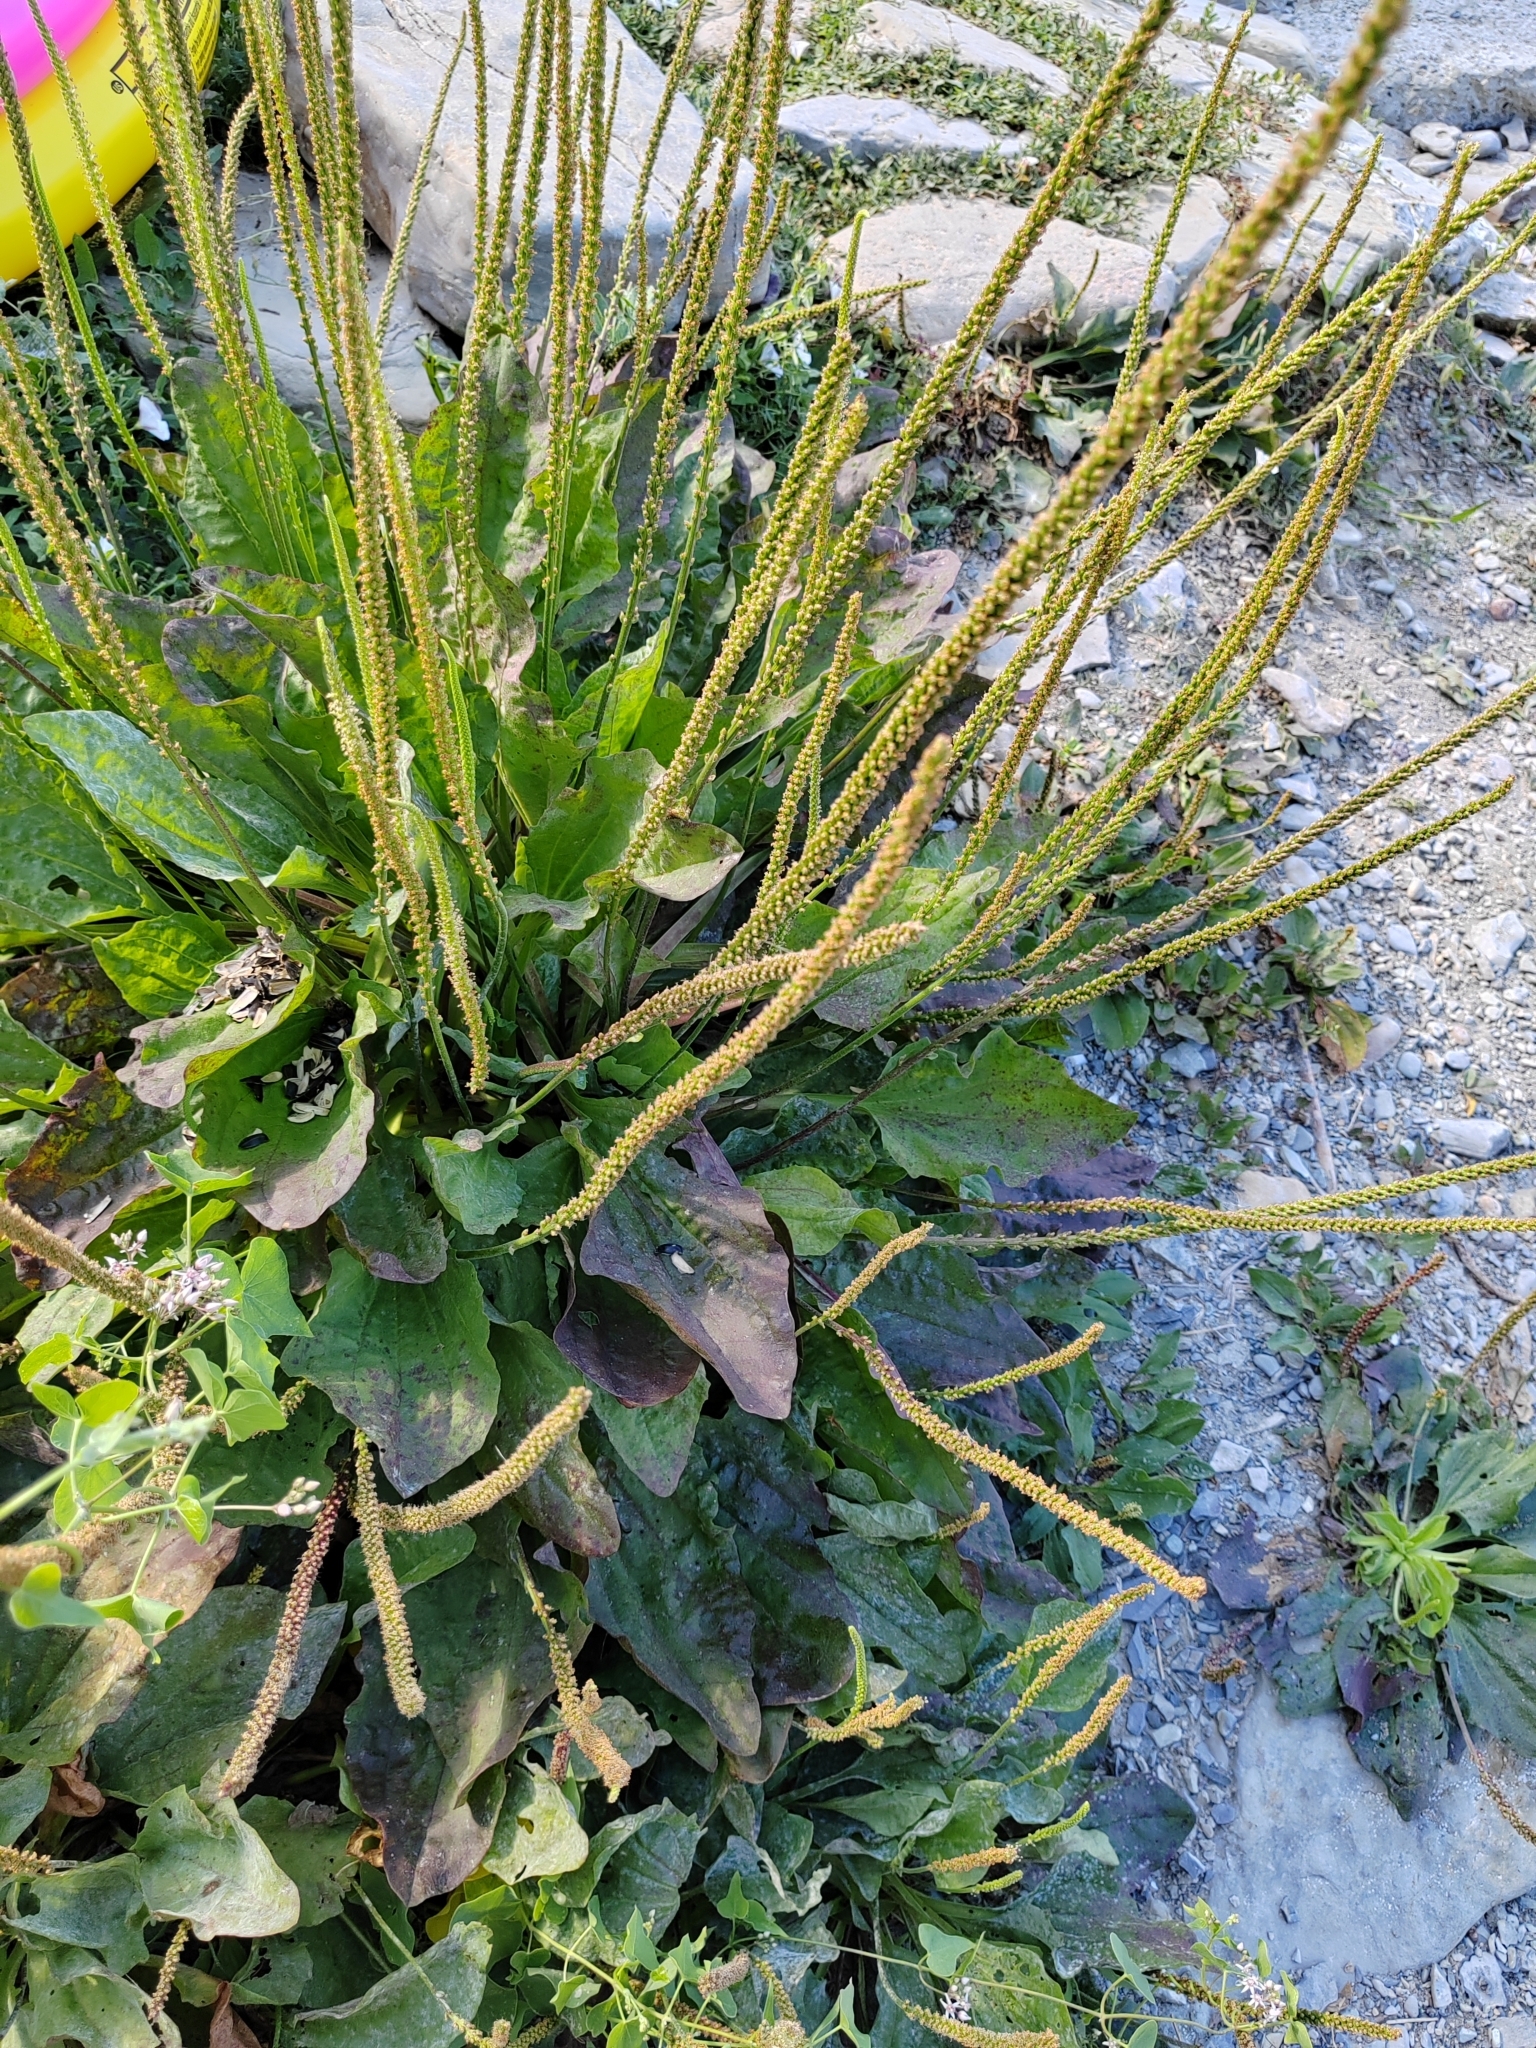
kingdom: Plantae
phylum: Tracheophyta
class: Magnoliopsida
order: Lamiales
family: Plantaginaceae
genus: Plantago
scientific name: Plantago major
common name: Common plantain
